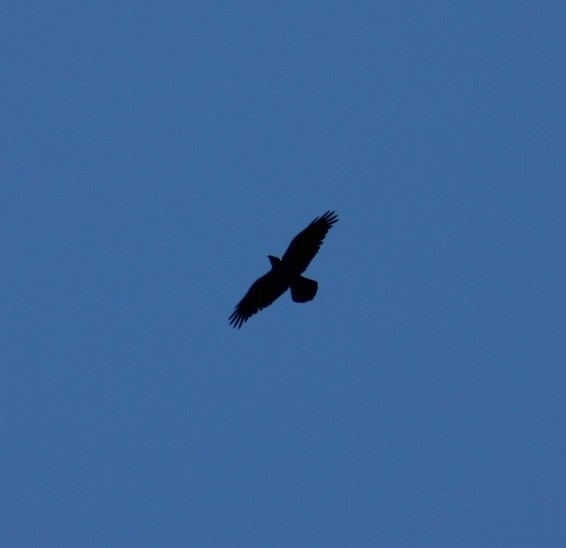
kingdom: Animalia
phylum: Chordata
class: Aves
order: Passeriformes
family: Corvidae
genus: Corvus
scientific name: Corvus corax
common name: Common raven
